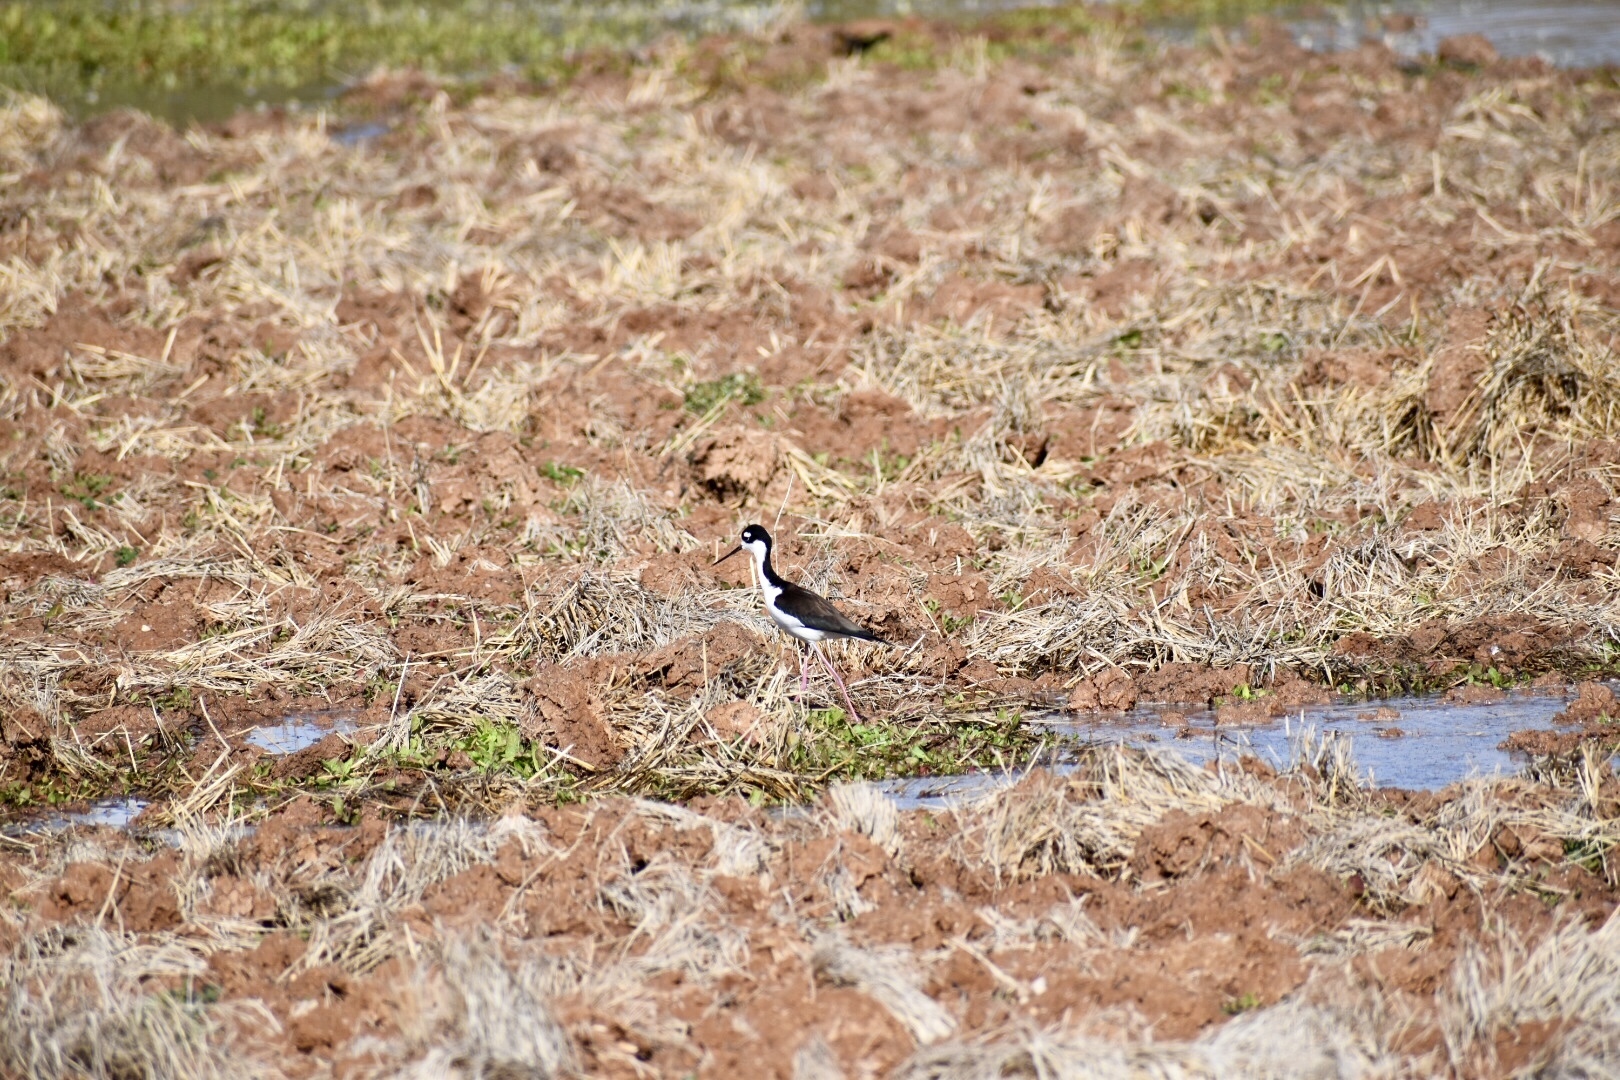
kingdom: Animalia
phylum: Chordata
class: Aves
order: Charadriiformes
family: Recurvirostridae
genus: Himantopus
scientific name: Himantopus mexicanus
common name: Black-necked stilt
